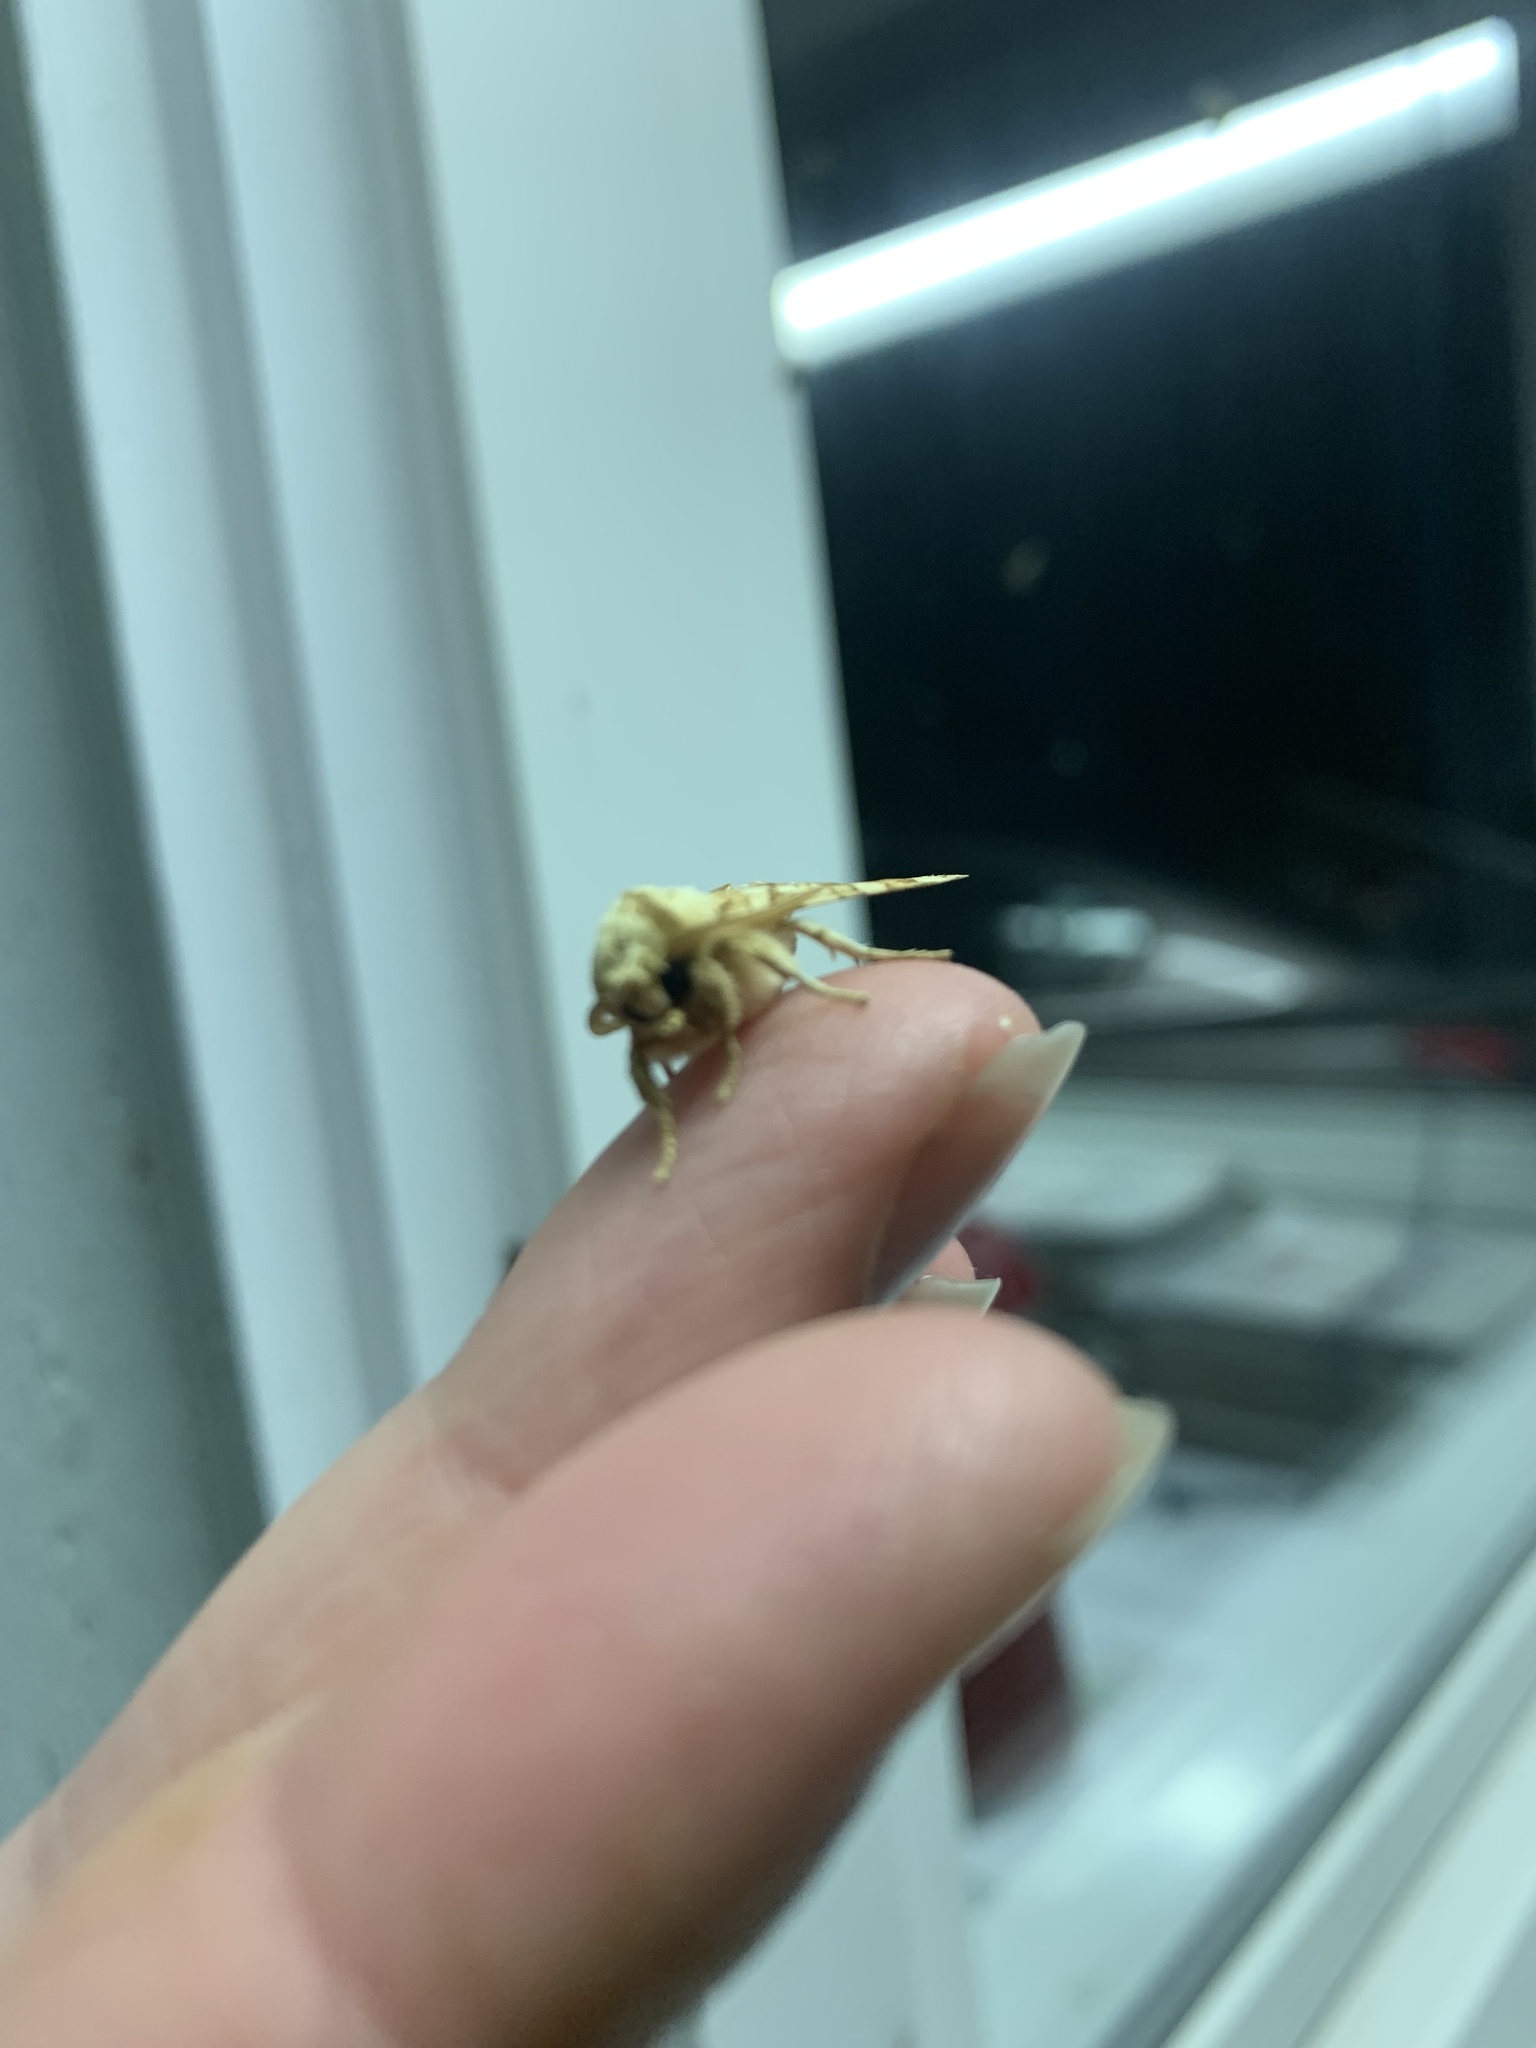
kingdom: Animalia
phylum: Arthropoda
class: Insecta
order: Lepidoptera
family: Erebidae
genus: Pyrrharctia
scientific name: Pyrrharctia isabella
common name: Isabella tiger moth
